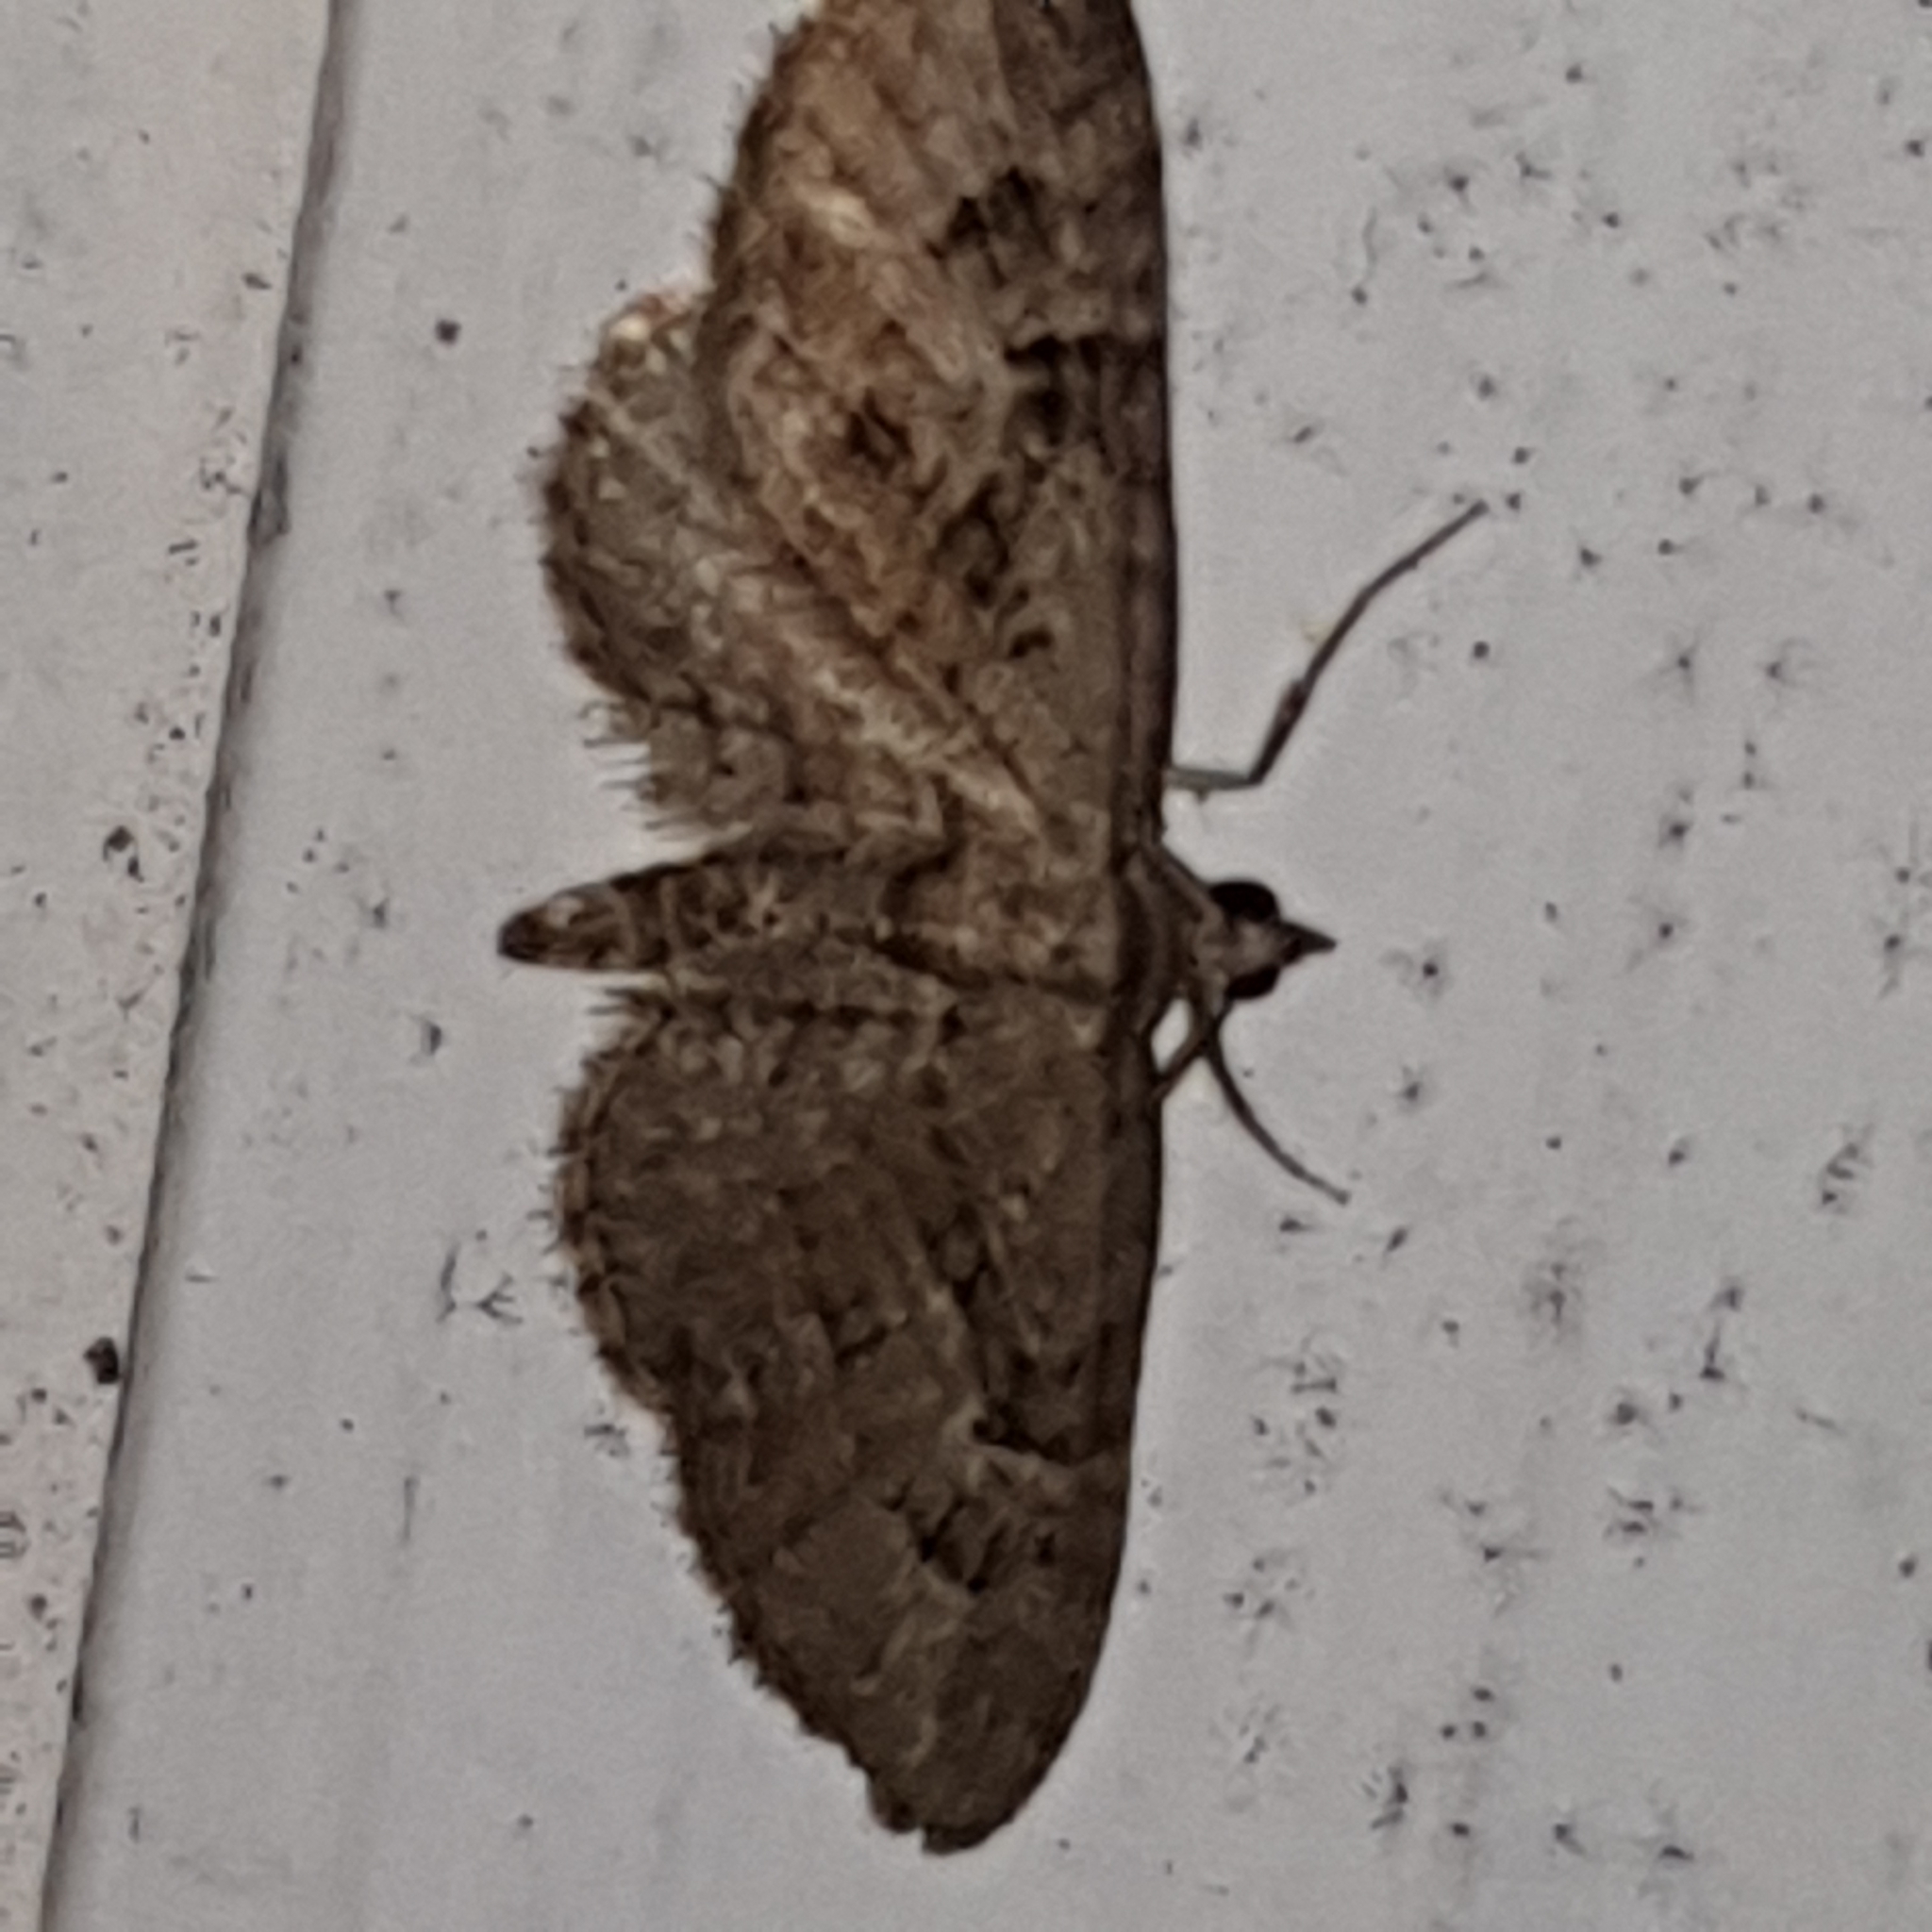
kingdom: Animalia
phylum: Arthropoda
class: Insecta
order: Lepidoptera
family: Geometridae
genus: Eupithecia
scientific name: Eupithecia pusillata
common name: Juniper pug
